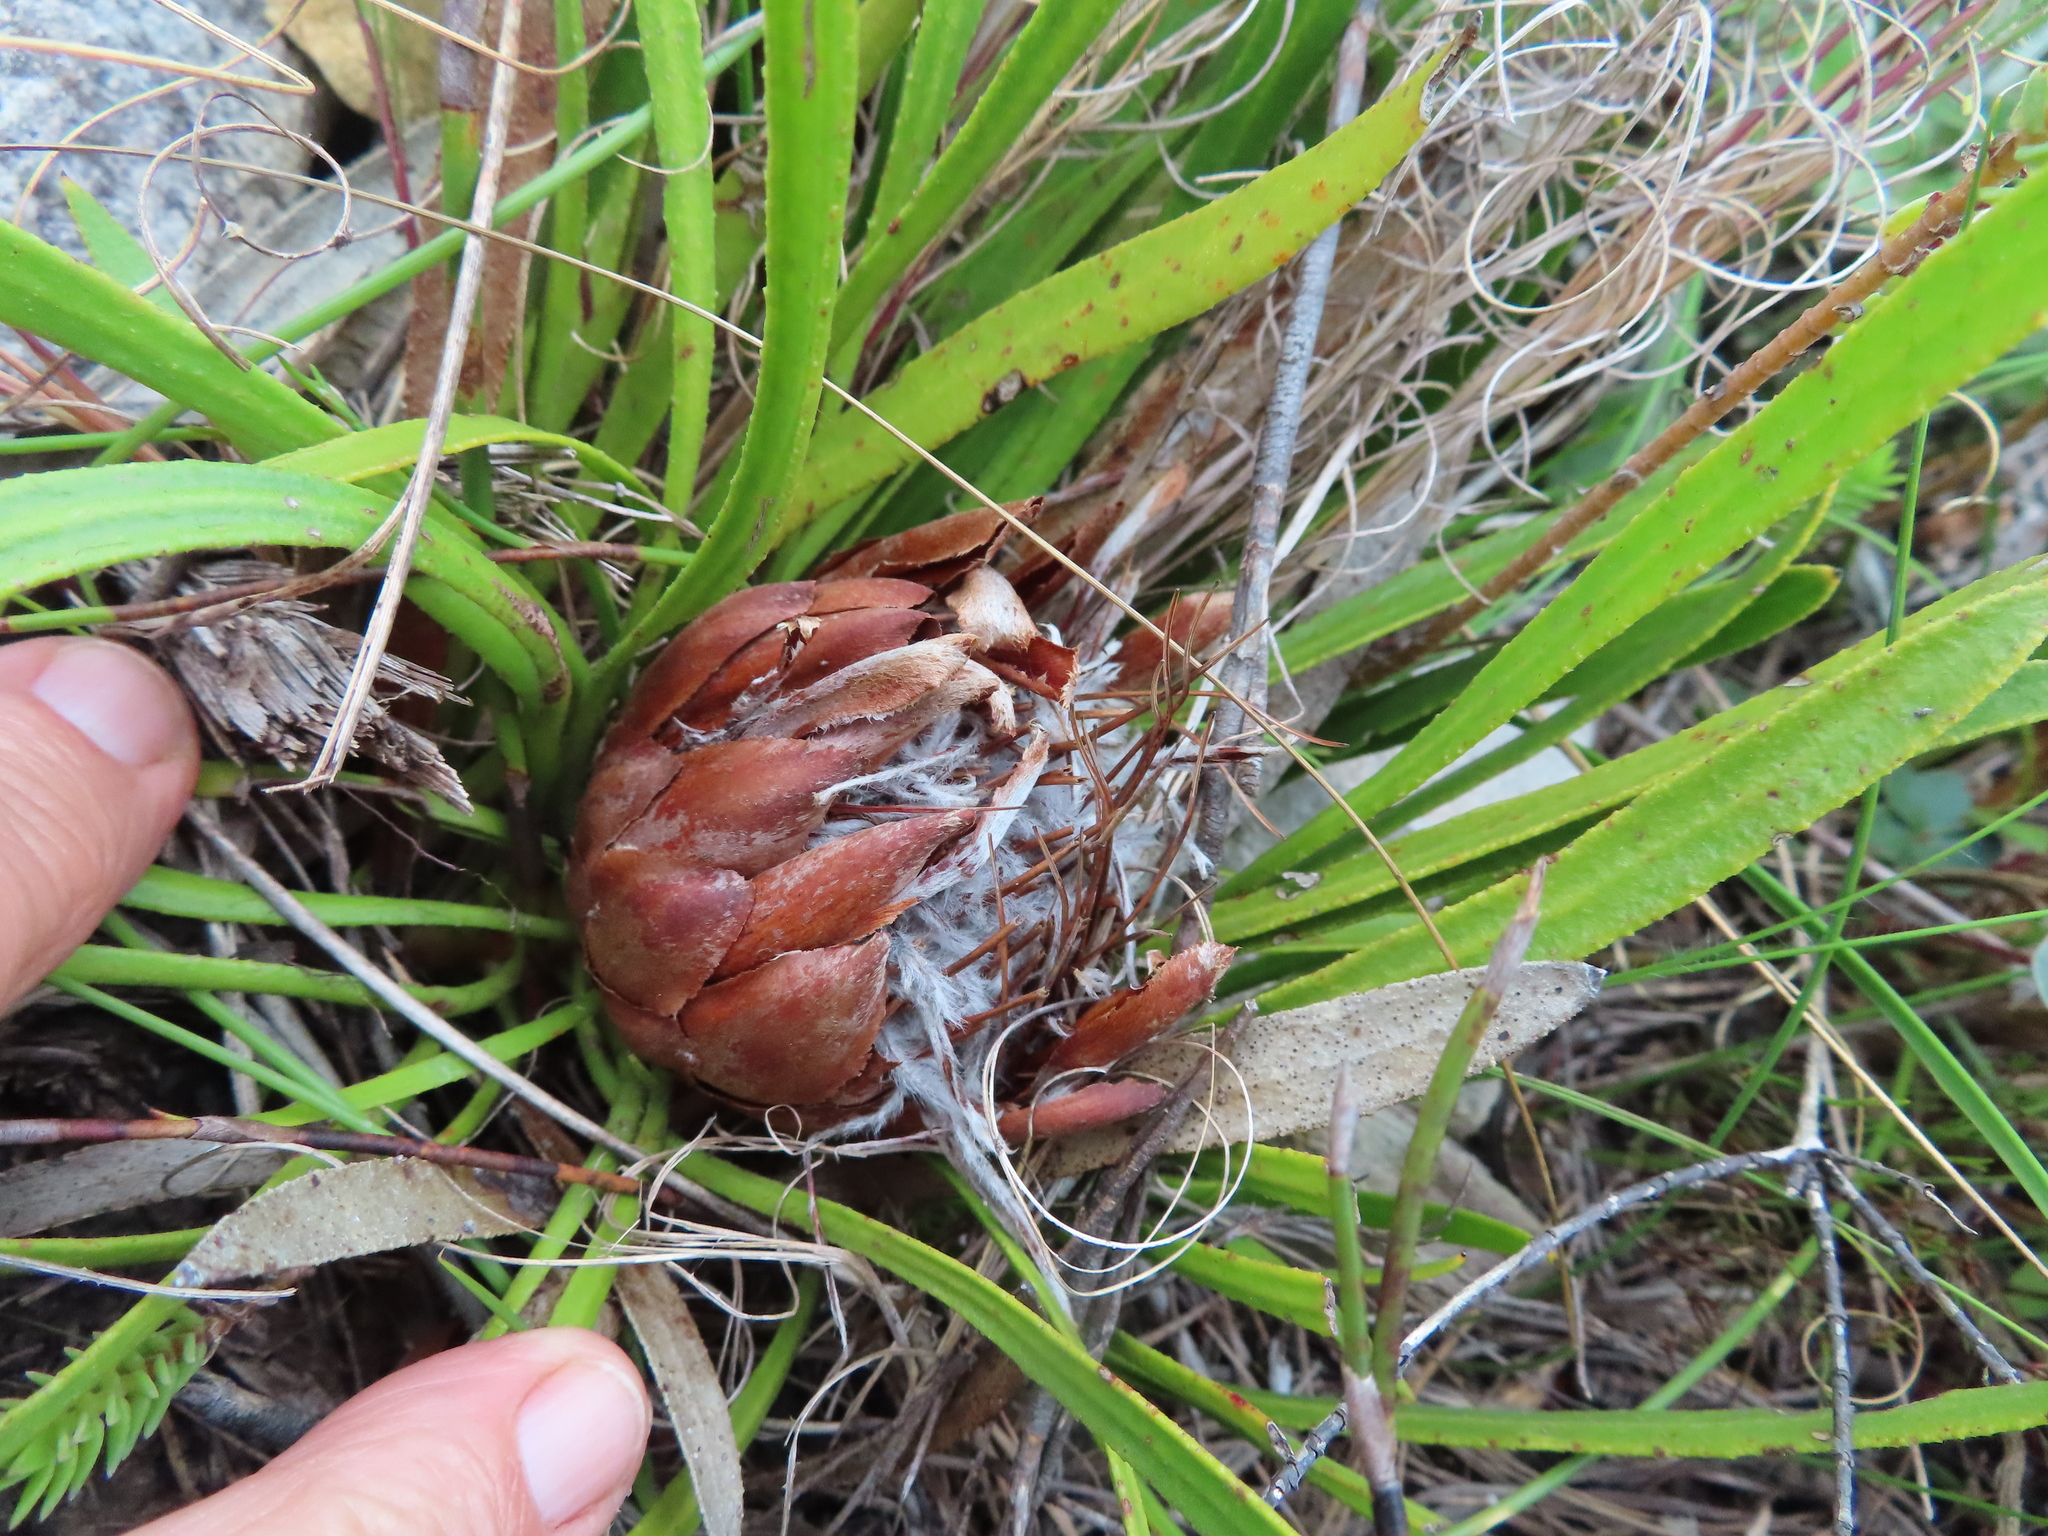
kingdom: Plantae
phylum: Tracheophyta
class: Magnoliopsida
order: Proteales
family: Proteaceae
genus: Protea
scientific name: Protea aspera
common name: Rough-leaf sugarbush
